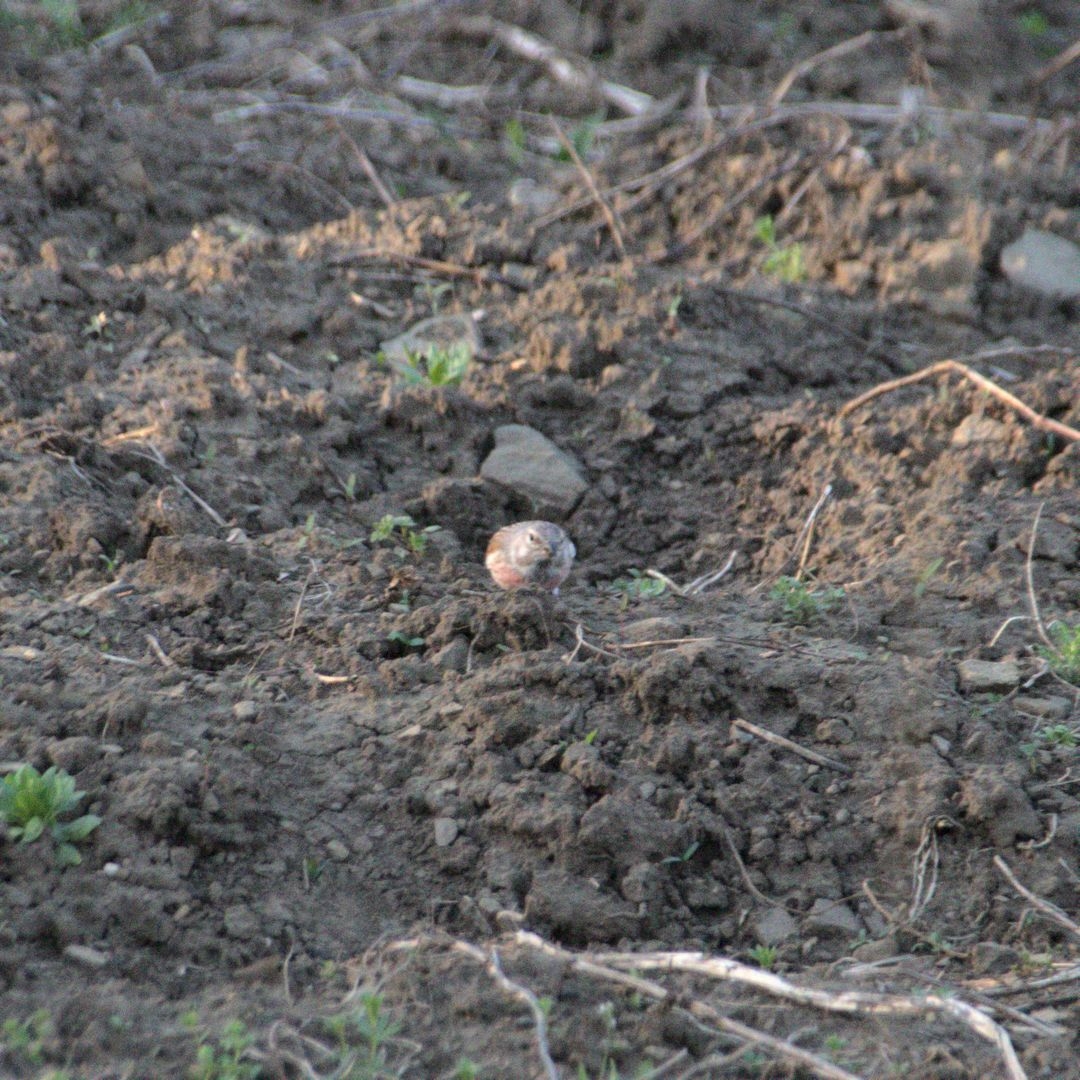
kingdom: Animalia
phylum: Chordata
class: Aves
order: Passeriformes
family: Fringillidae
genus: Linaria
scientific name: Linaria cannabina
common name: Common linnet
